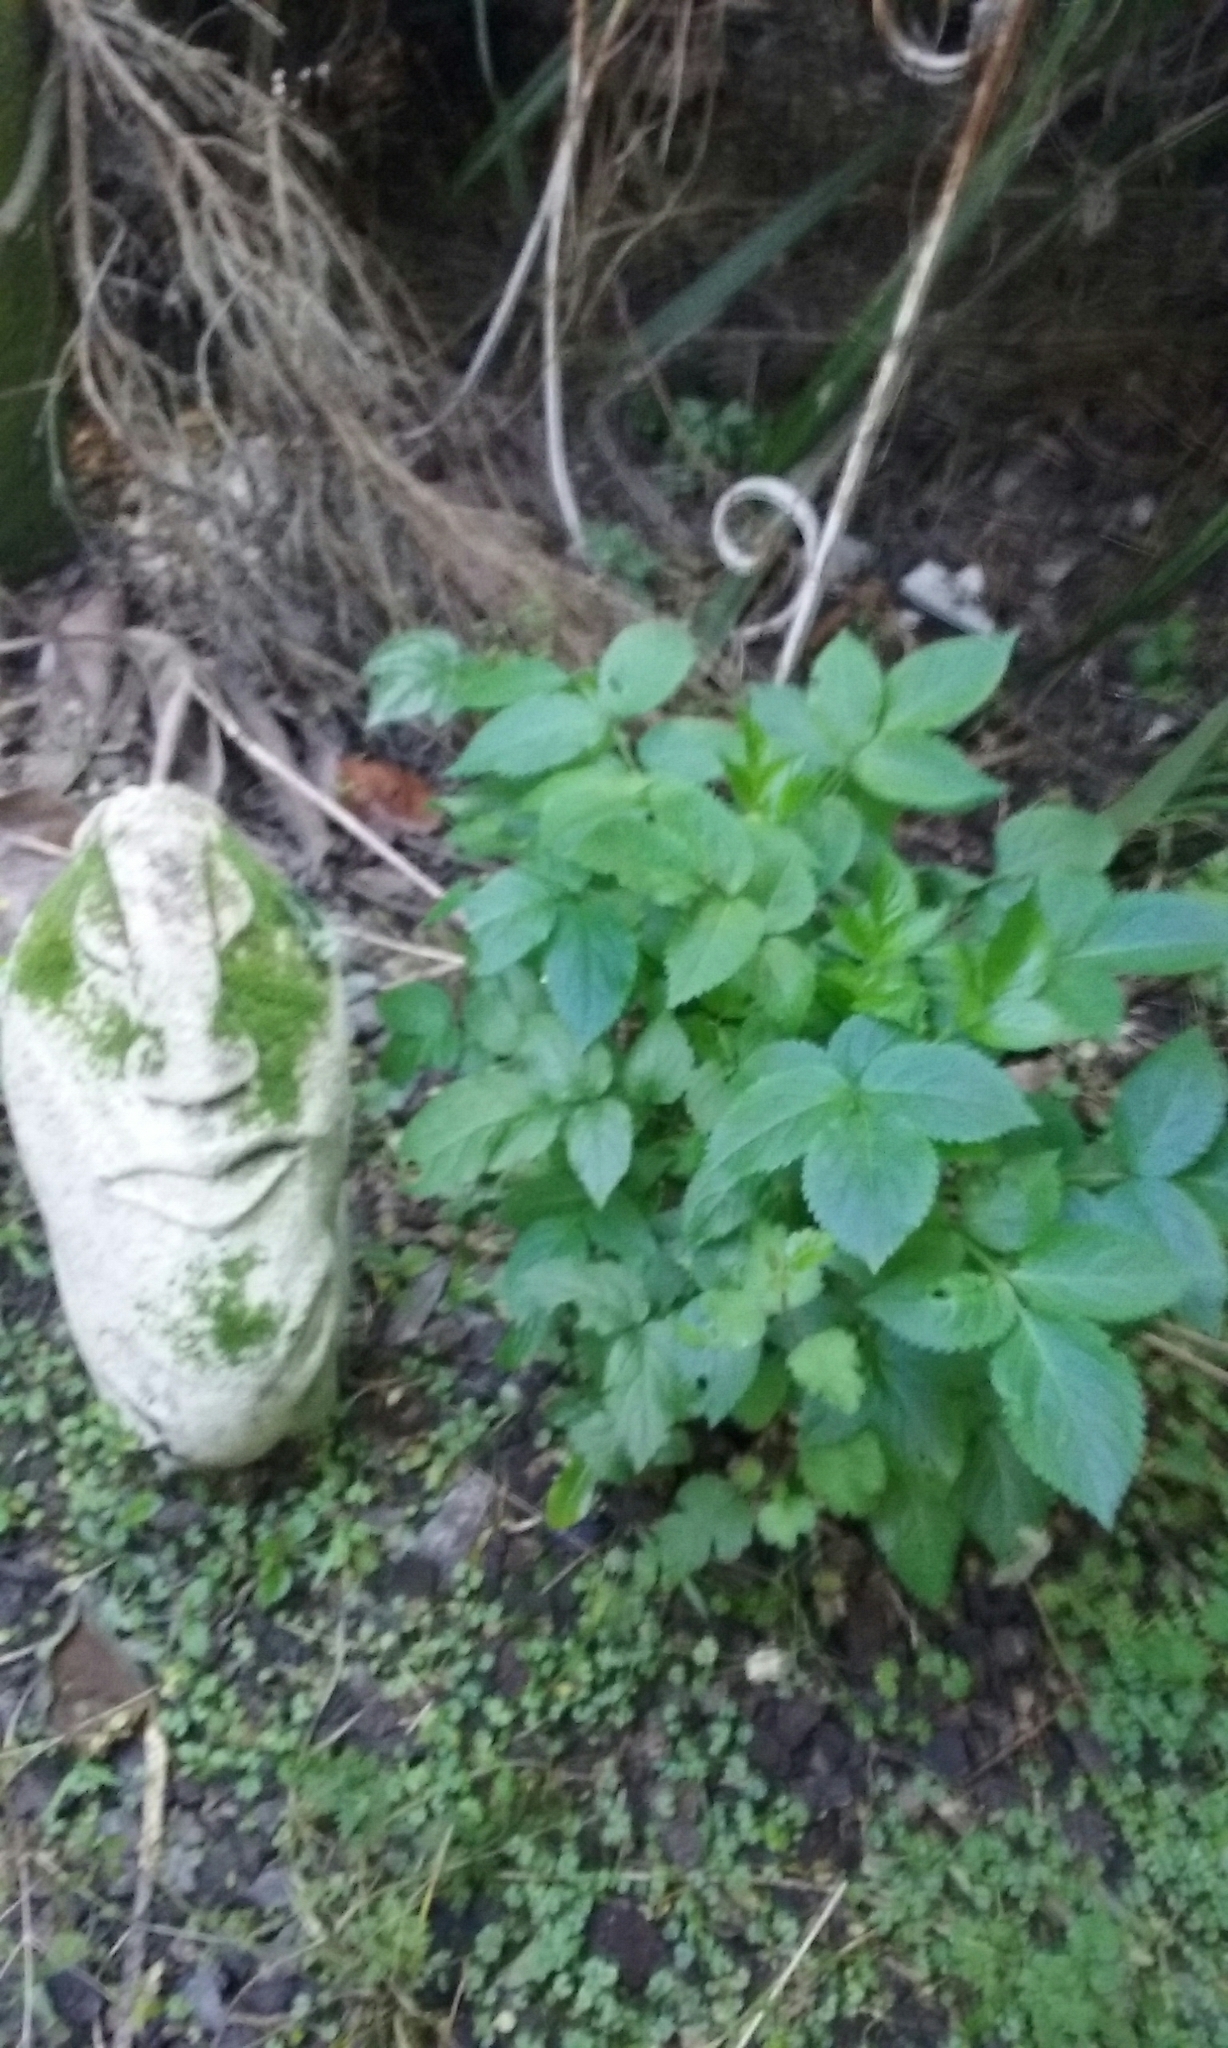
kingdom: Plantae
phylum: Tracheophyta
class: Magnoliopsida
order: Dipsacales
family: Viburnaceae
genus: Sambucus
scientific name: Sambucus nigra
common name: Elder
